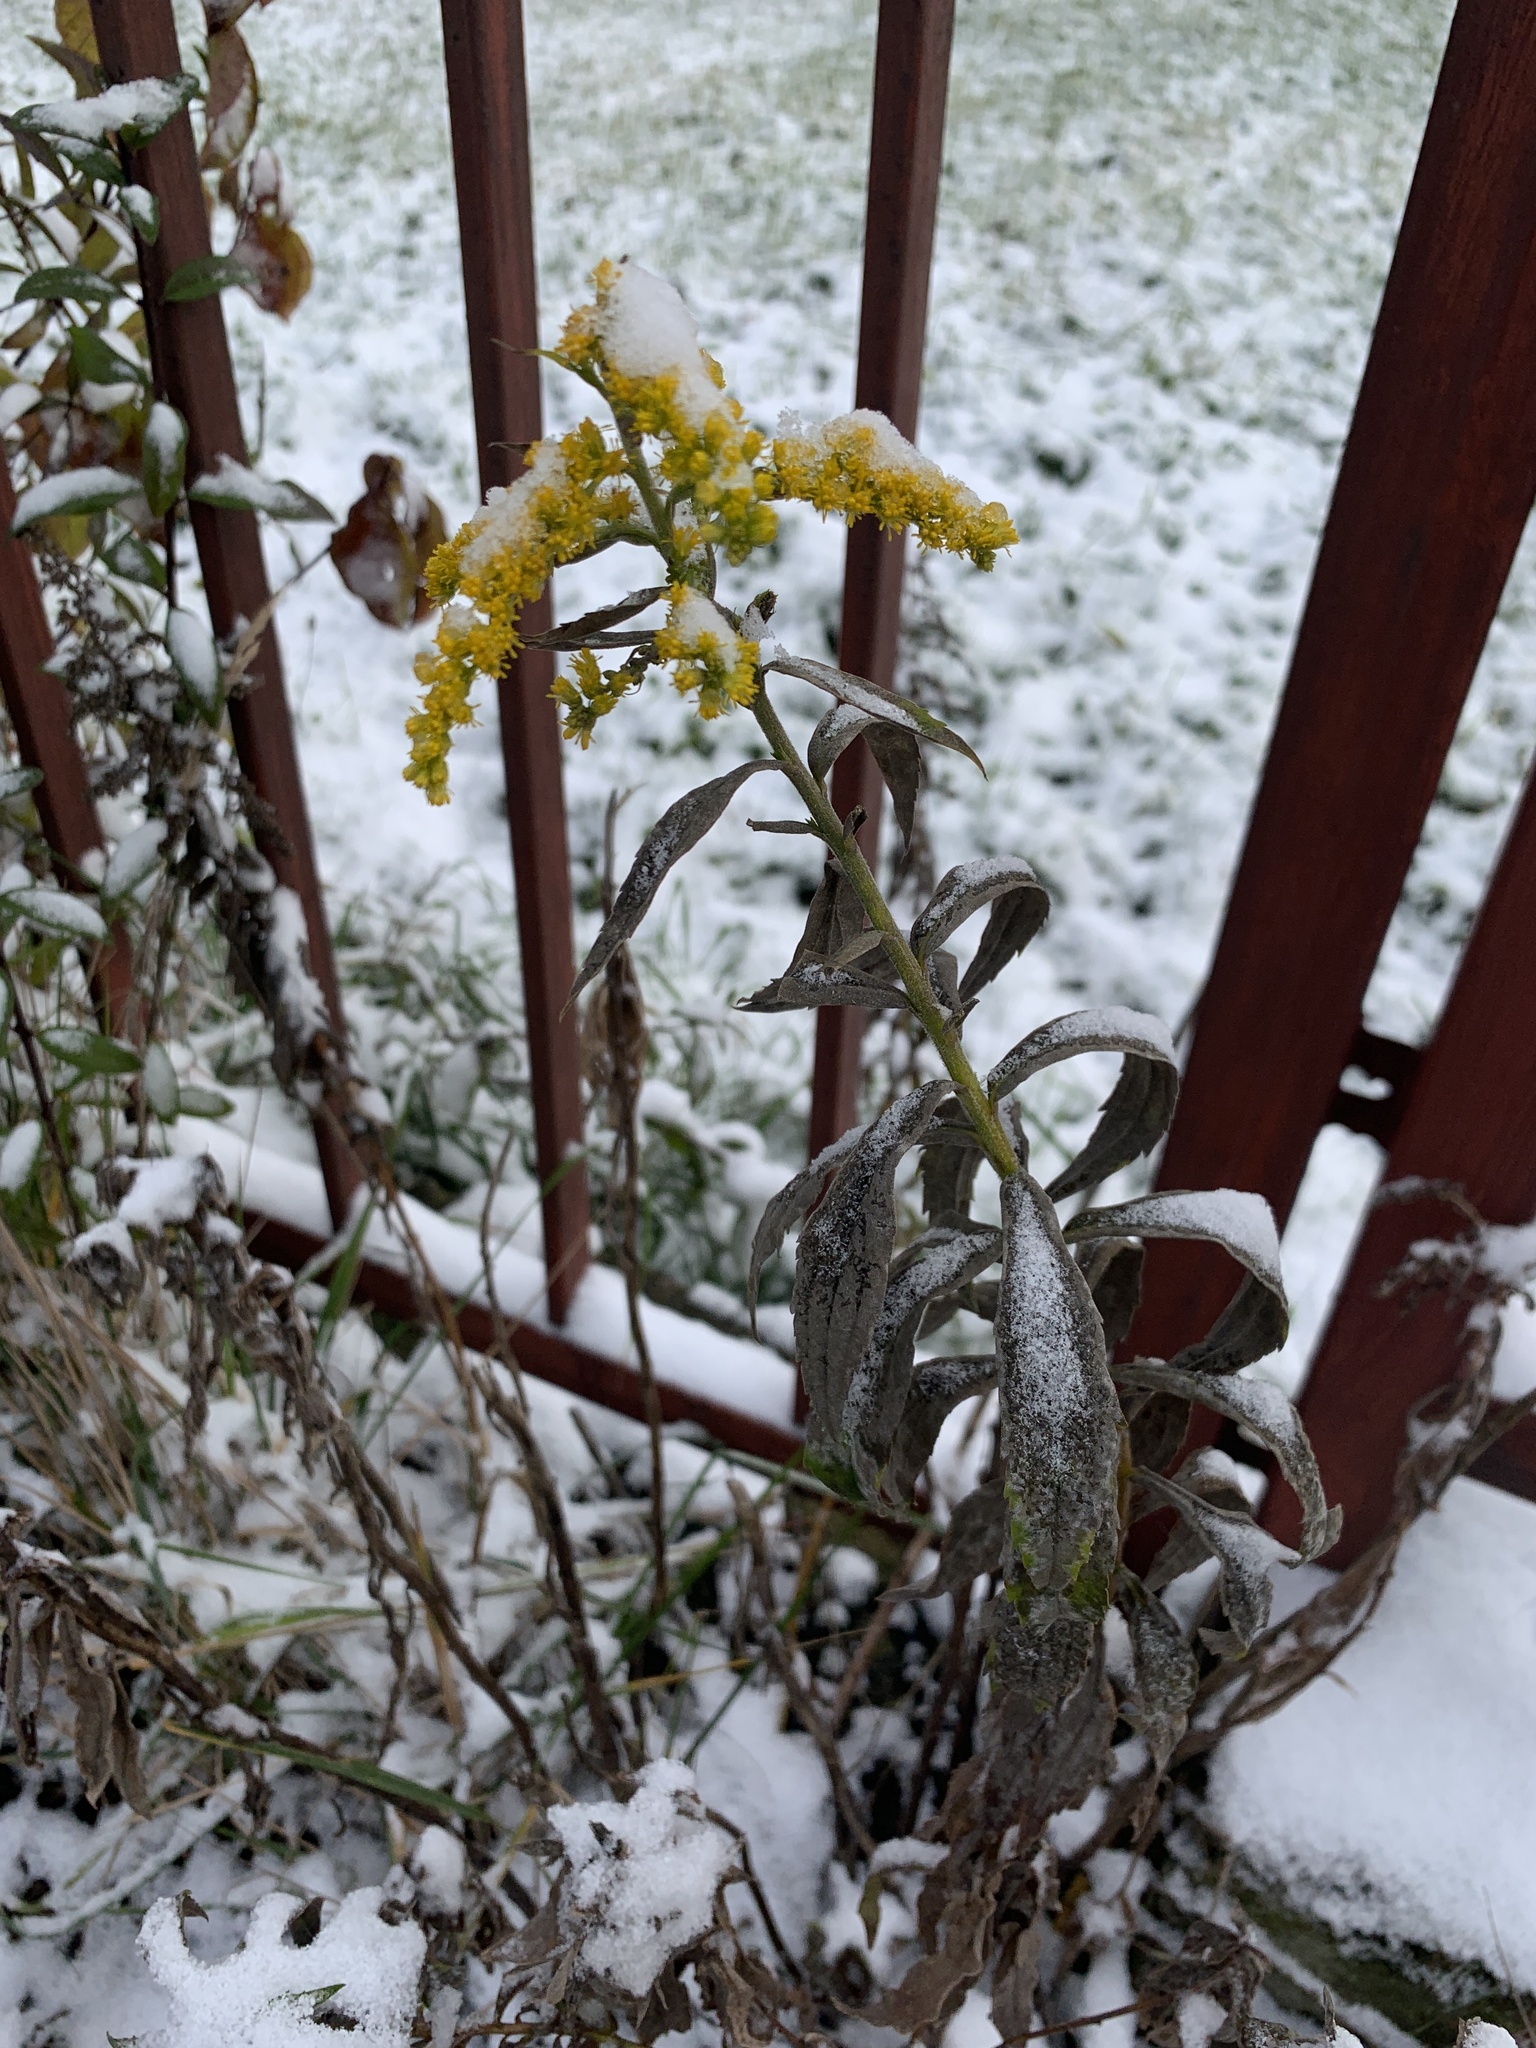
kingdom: Plantae
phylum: Tracheophyta
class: Magnoliopsida
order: Asterales
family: Asteraceae
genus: Solidago
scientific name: Solidago canadensis
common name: Canada goldenrod
